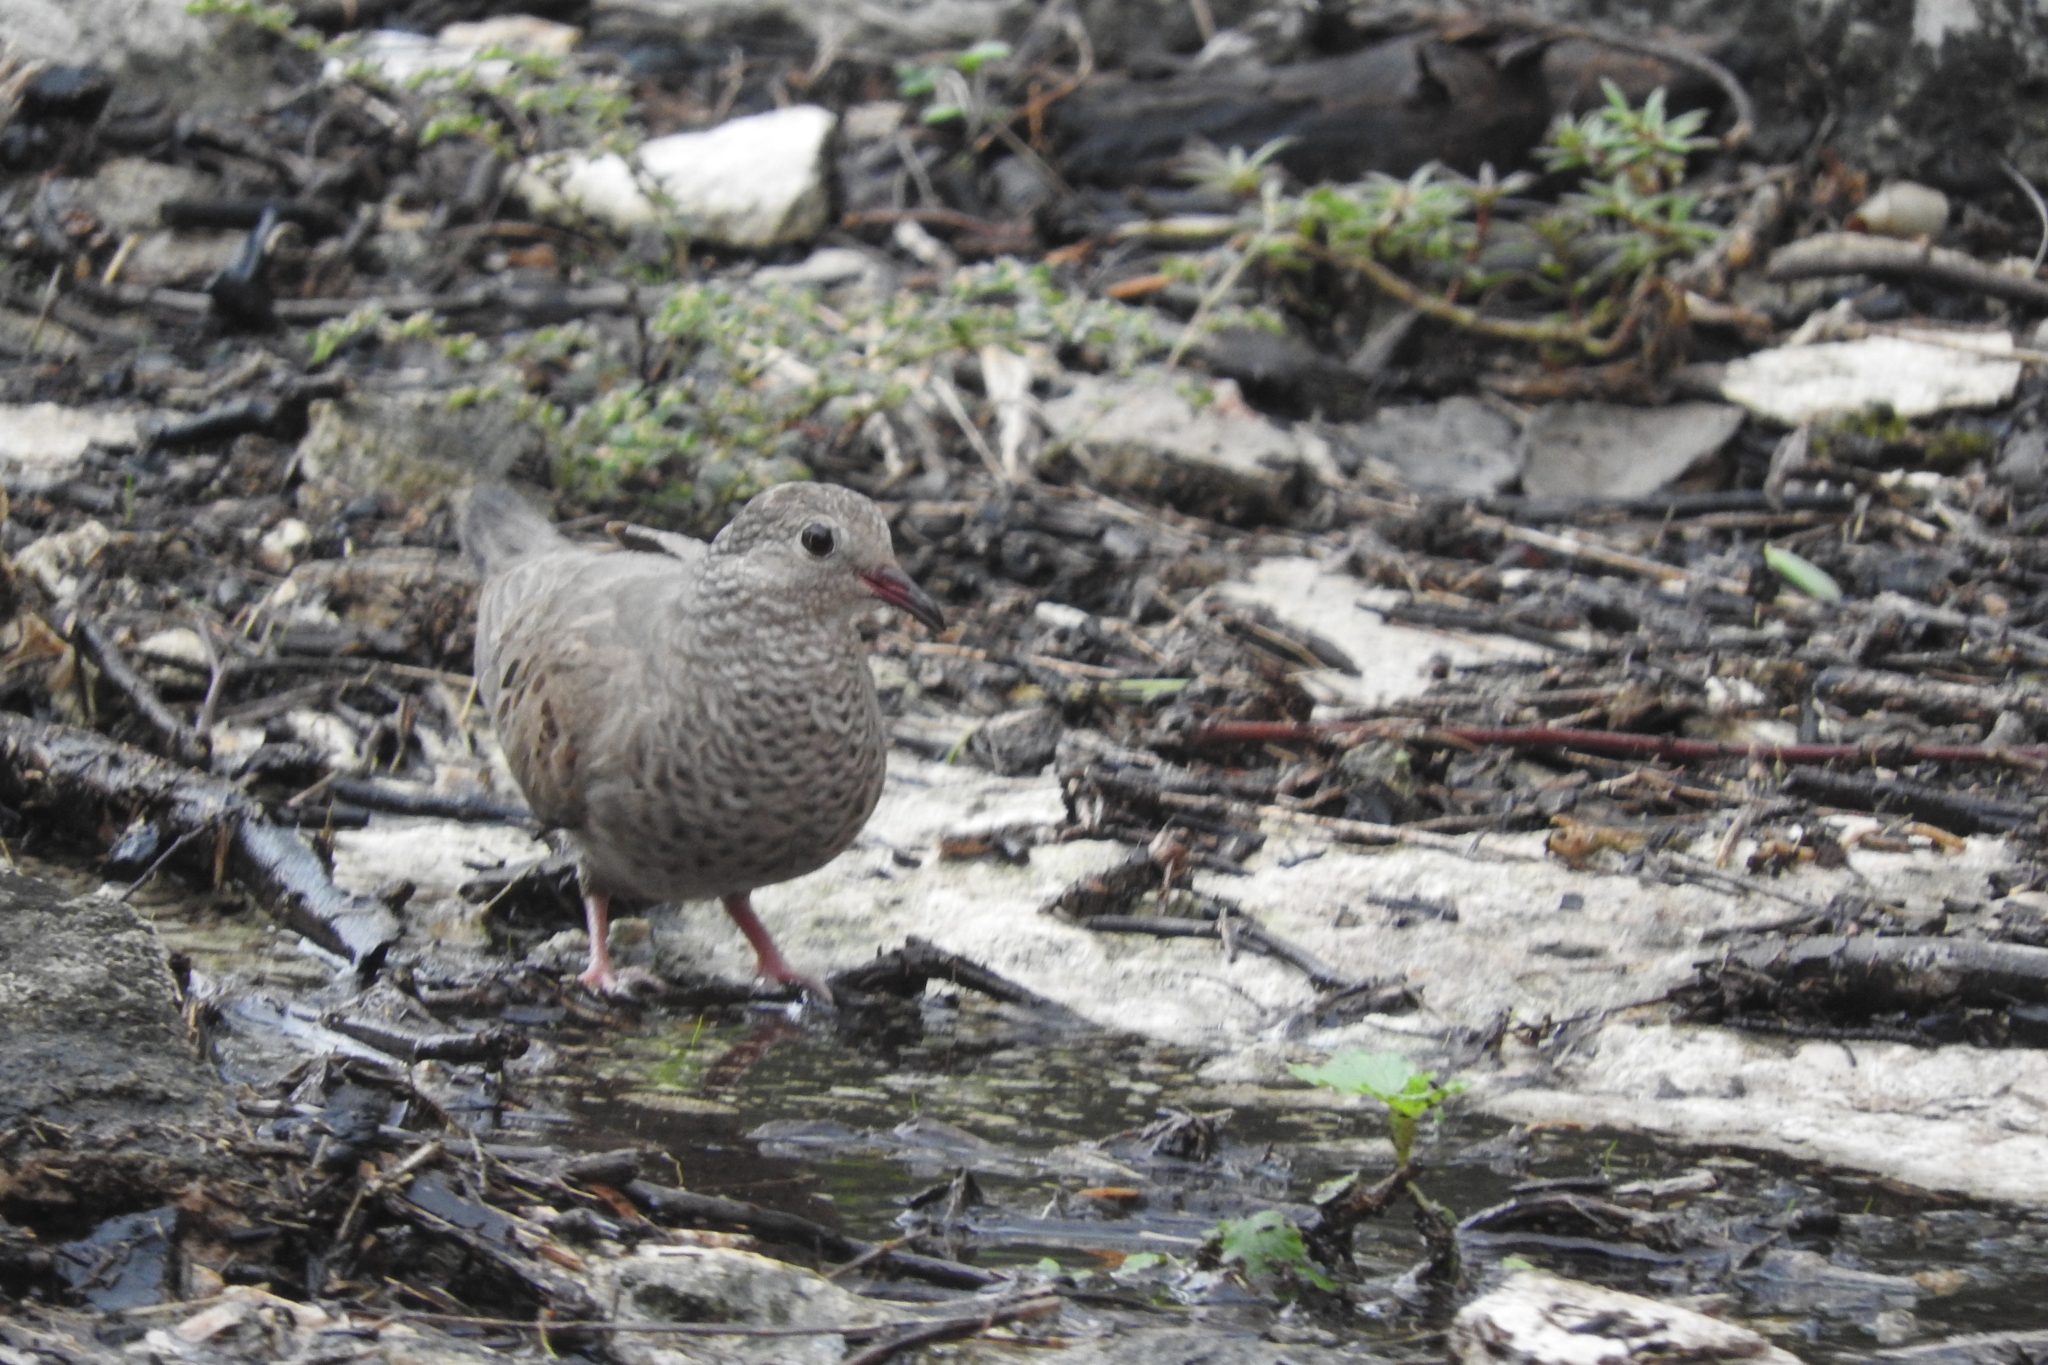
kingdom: Animalia
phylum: Chordata
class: Aves
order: Columbiformes
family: Columbidae
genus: Columbina
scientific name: Columbina passerina
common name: Common ground-dove
